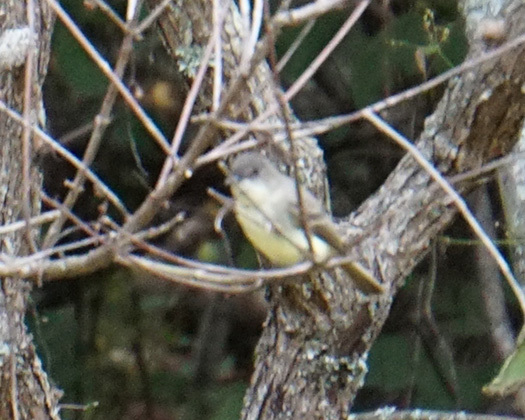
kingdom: Animalia
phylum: Chordata
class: Aves
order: Passeriformes
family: Tyrannidae
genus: Sayornis
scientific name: Sayornis phoebe
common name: Eastern phoebe
